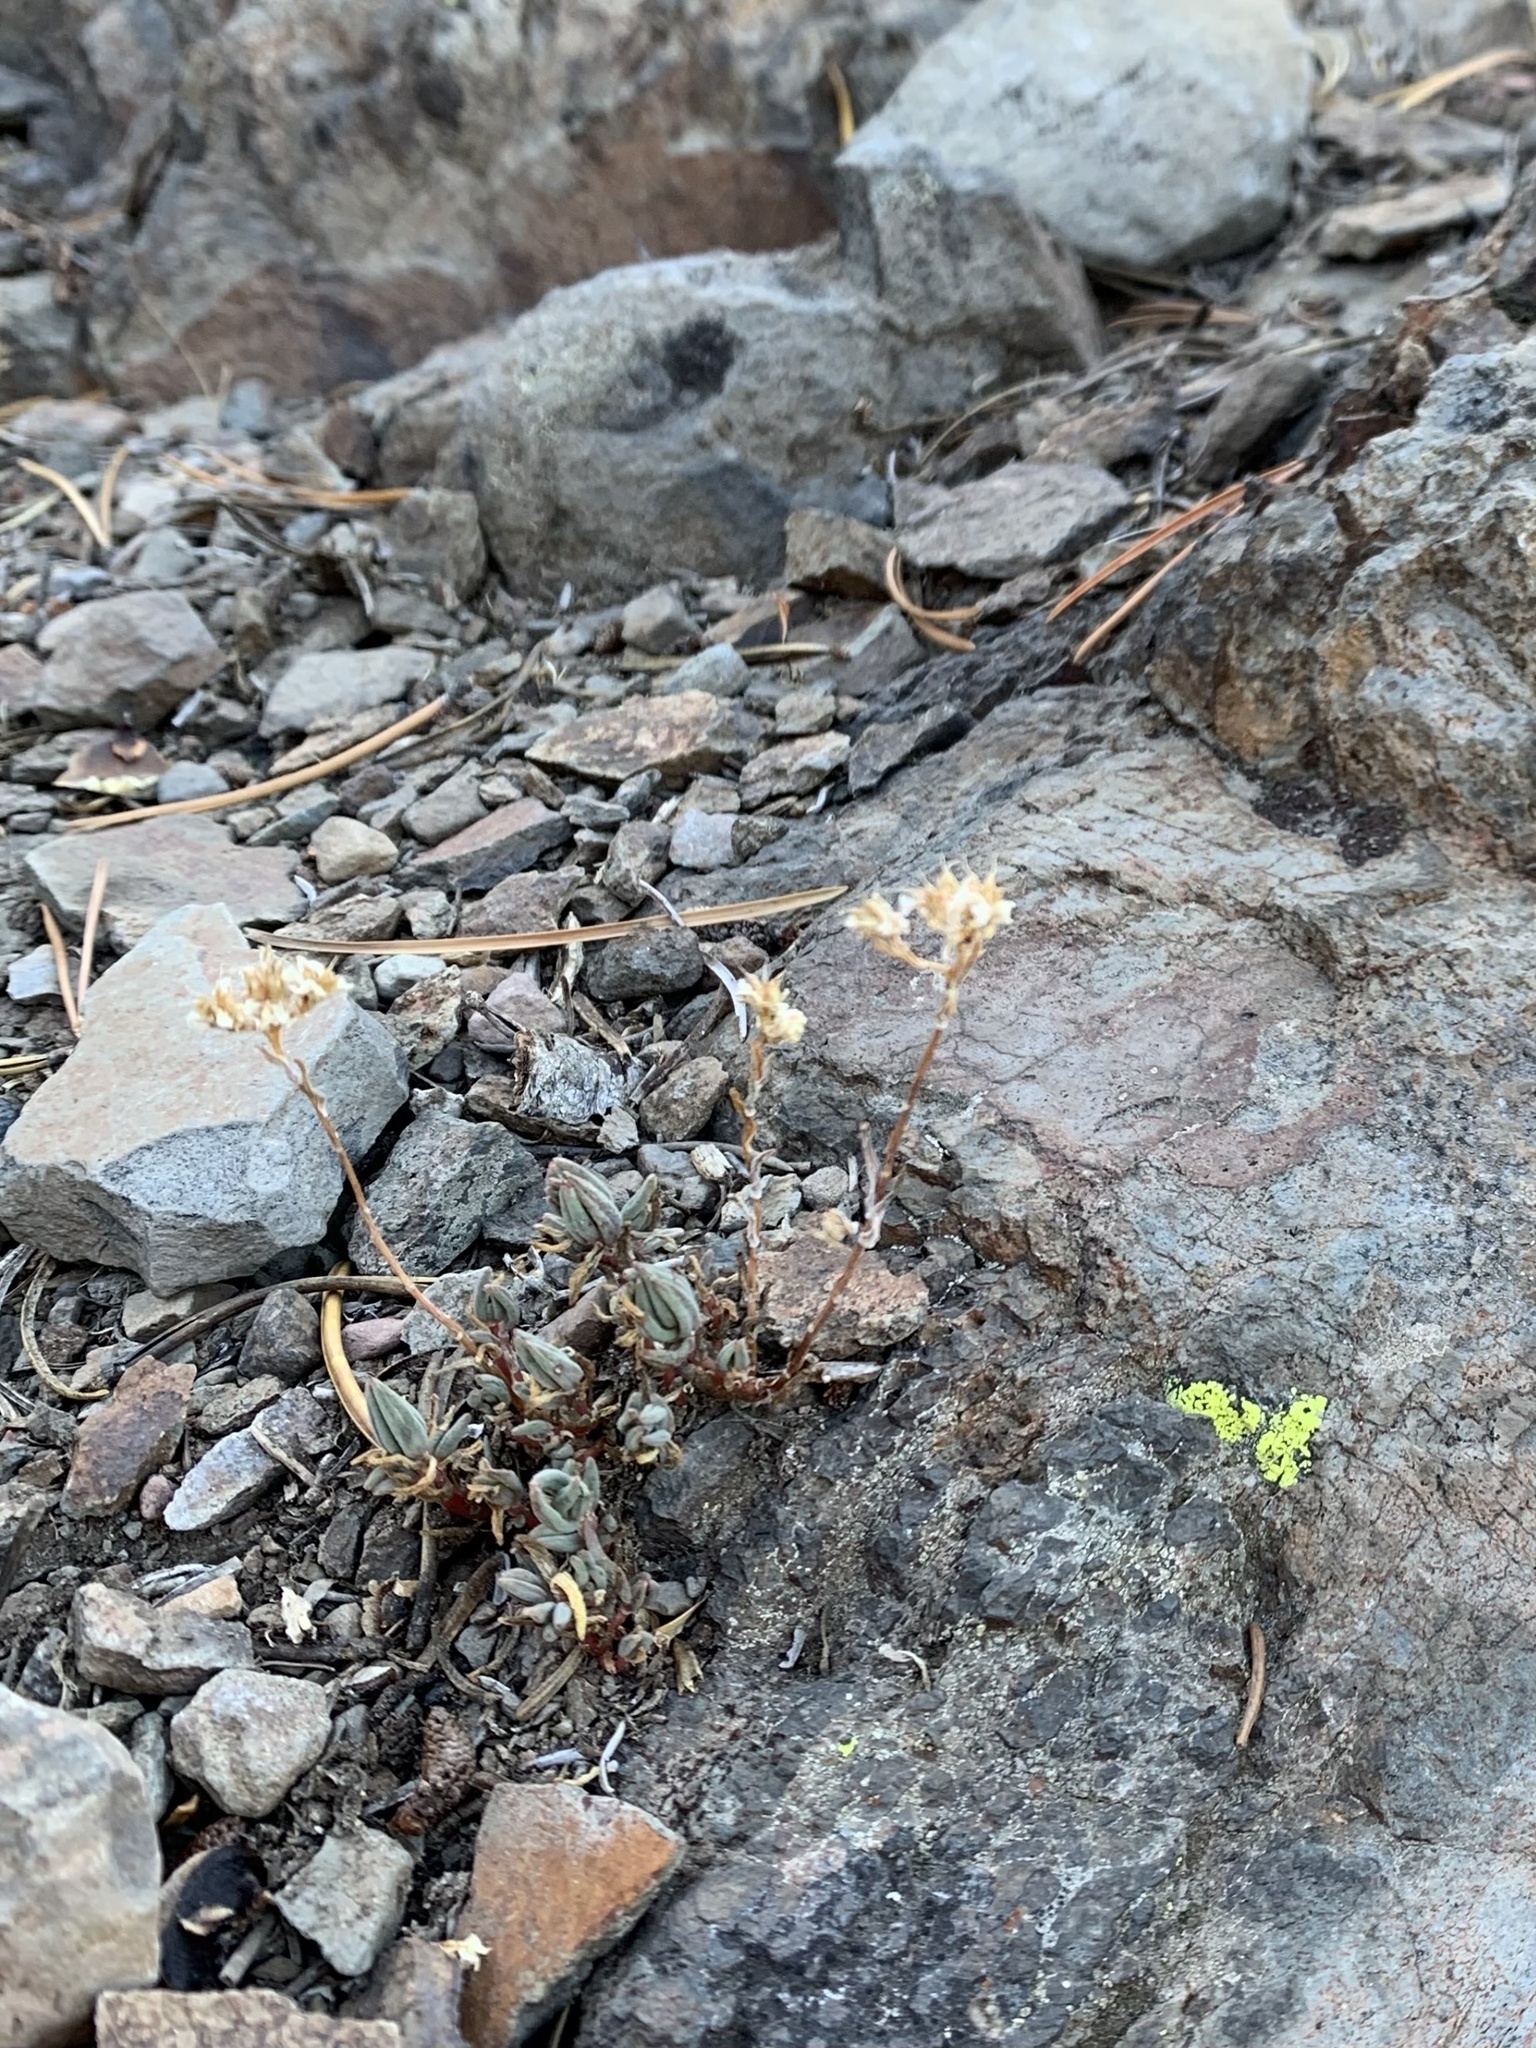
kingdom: Plantae
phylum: Tracheophyta
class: Magnoliopsida
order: Saxifragales
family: Crassulaceae
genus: Sedum
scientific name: Sedum lanceolatum
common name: Common stonecrop
